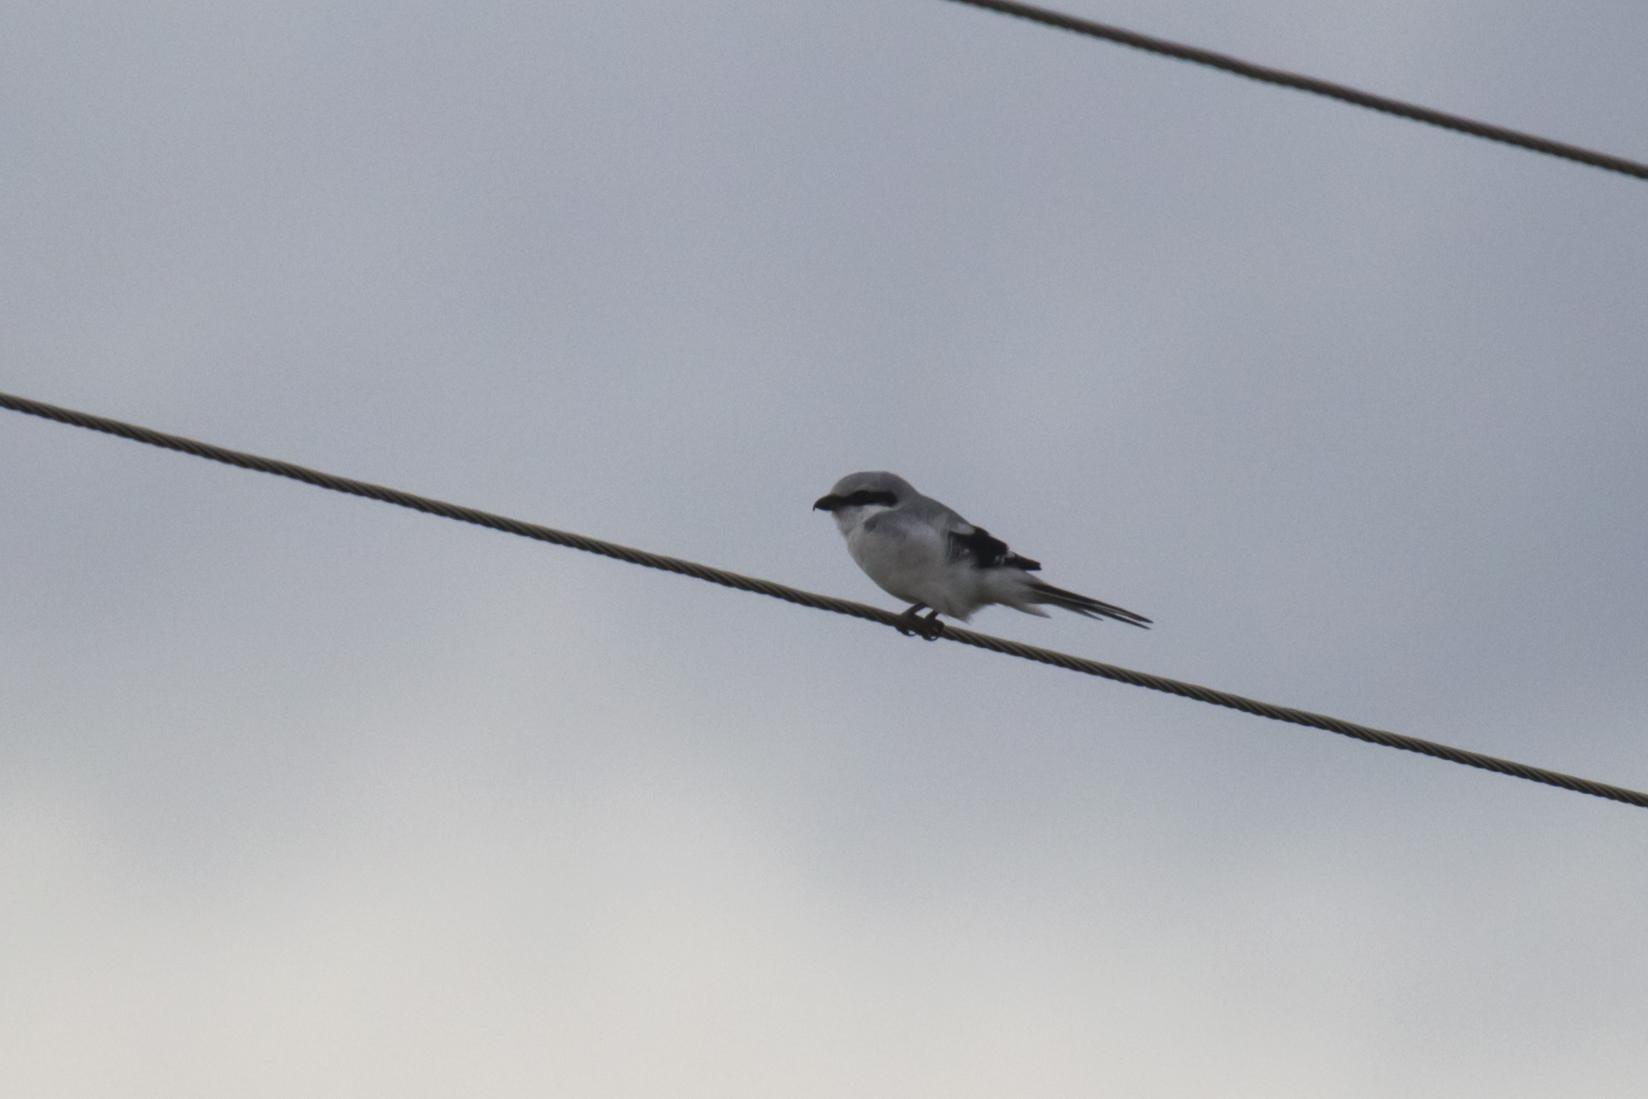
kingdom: Animalia
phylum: Chordata
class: Aves
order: Passeriformes
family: Laniidae
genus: Lanius
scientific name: Lanius excubitor
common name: Great grey shrike
